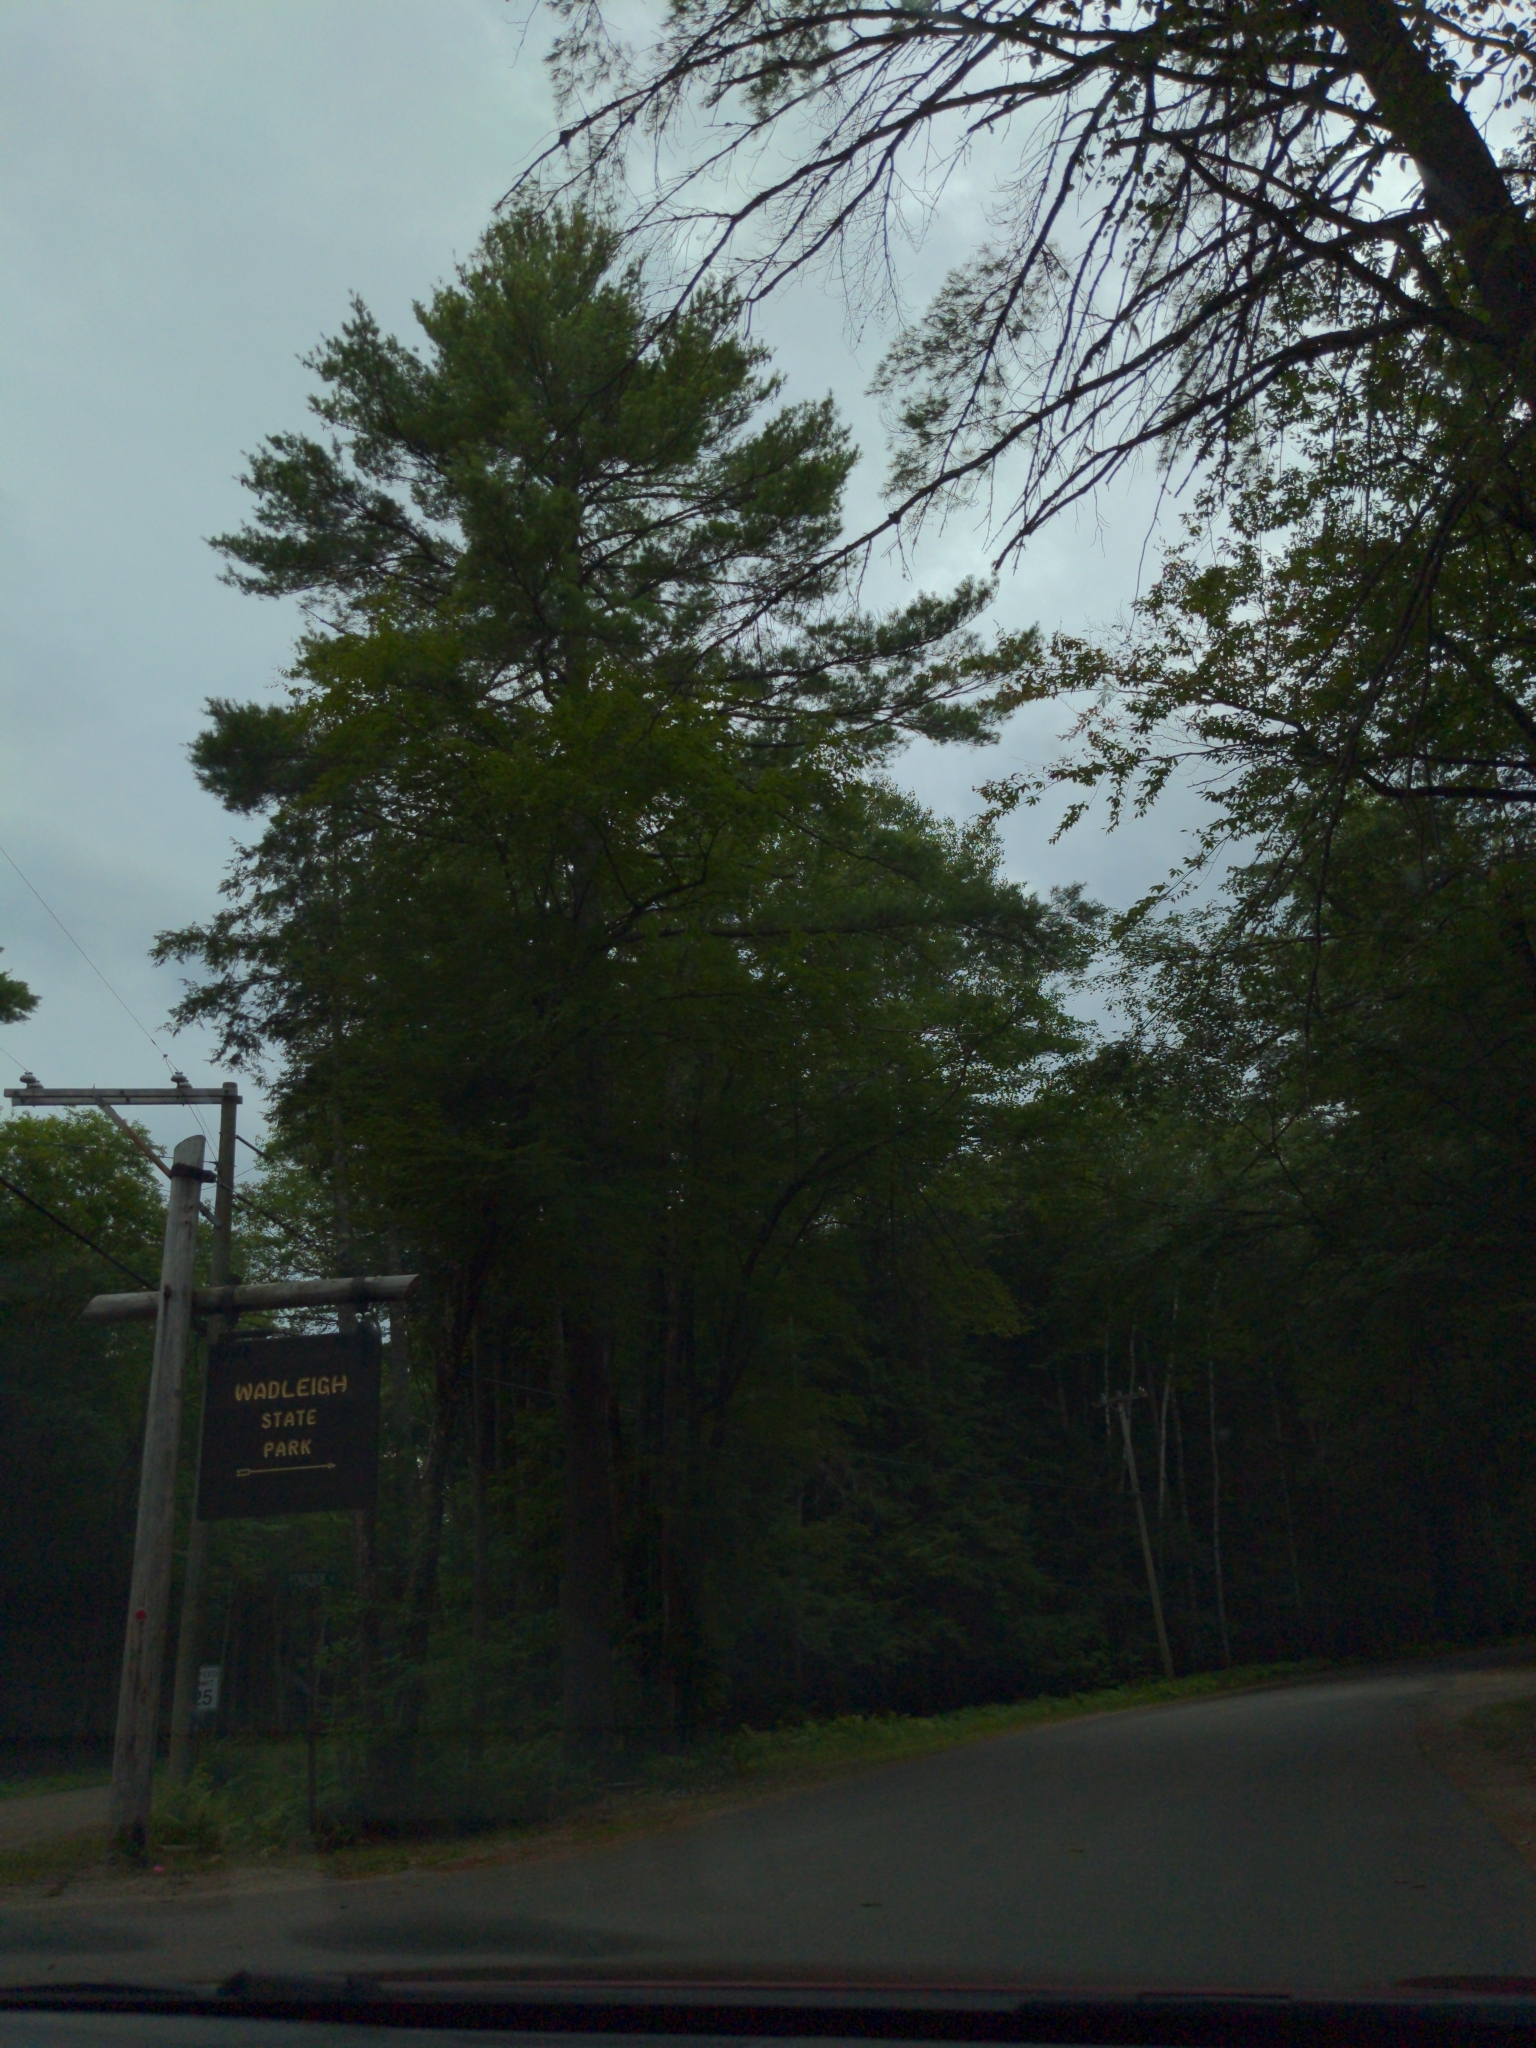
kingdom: Plantae
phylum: Tracheophyta
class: Pinopsida
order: Pinales
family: Pinaceae
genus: Pinus
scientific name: Pinus strobus
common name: Weymouth pine
